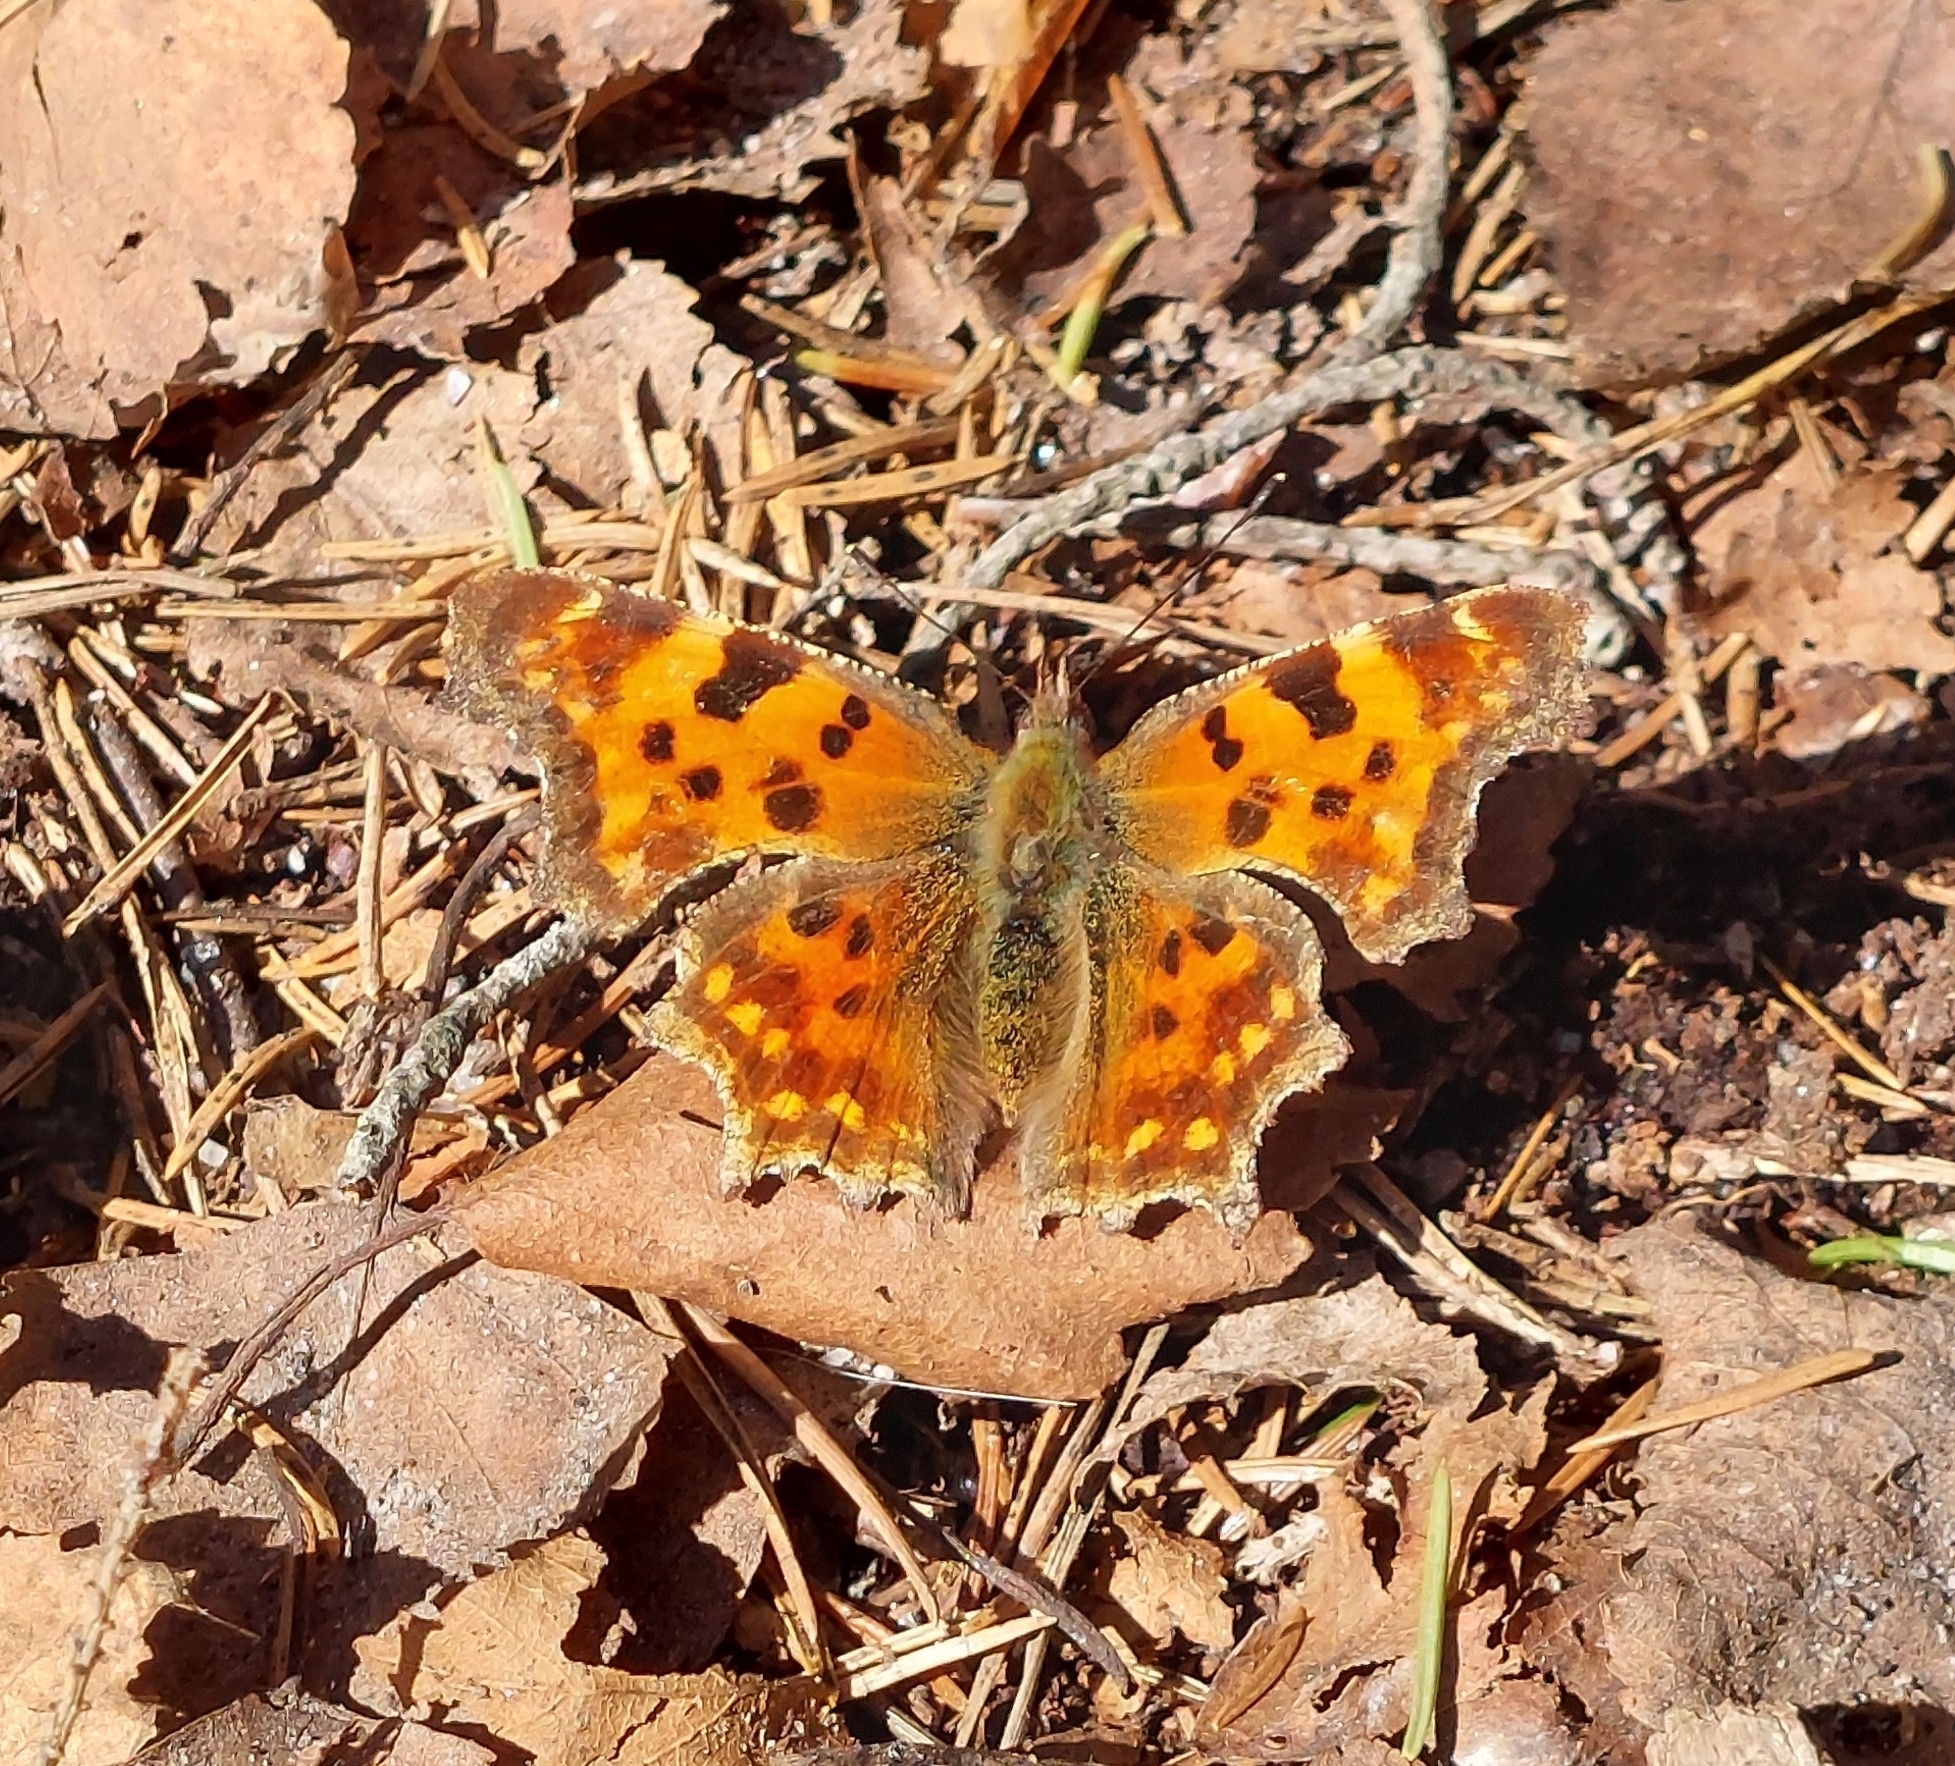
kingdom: Animalia
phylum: Arthropoda
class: Insecta
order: Lepidoptera
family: Nymphalidae
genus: Polygonia
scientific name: Polygonia c-album
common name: Comma
